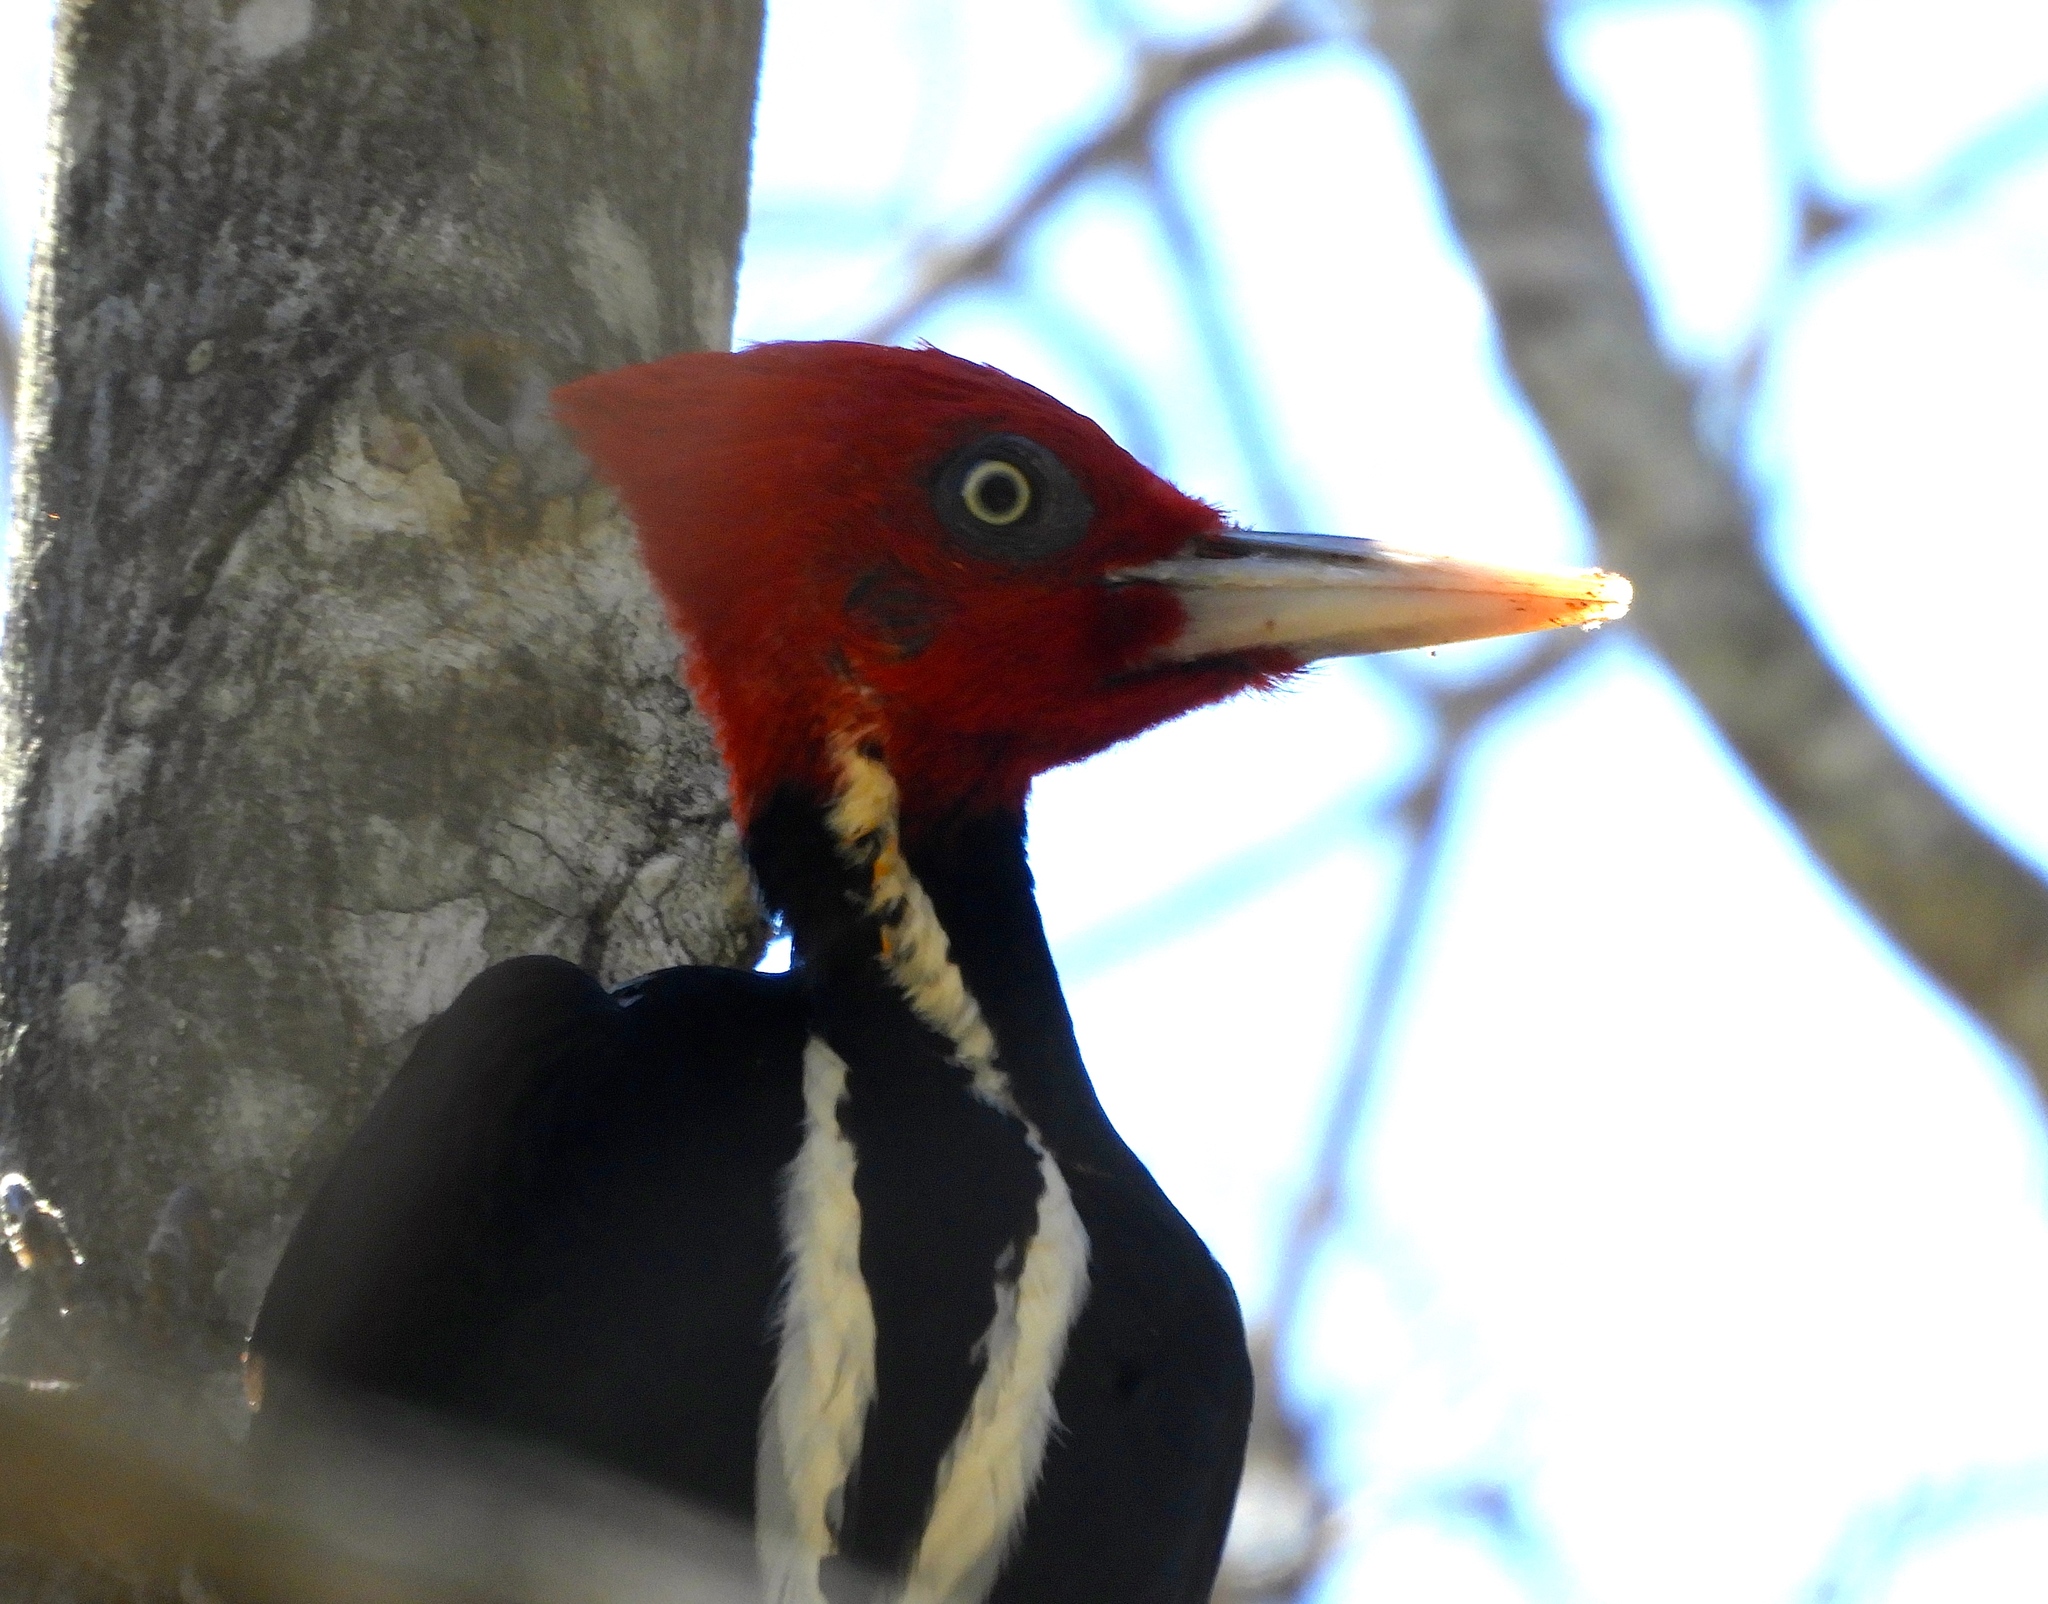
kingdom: Animalia
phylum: Chordata
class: Aves
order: Piciformes
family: Picidae
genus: Campephilus
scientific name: Campephilus guatemalensis
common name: Pale-billed woodpecker
